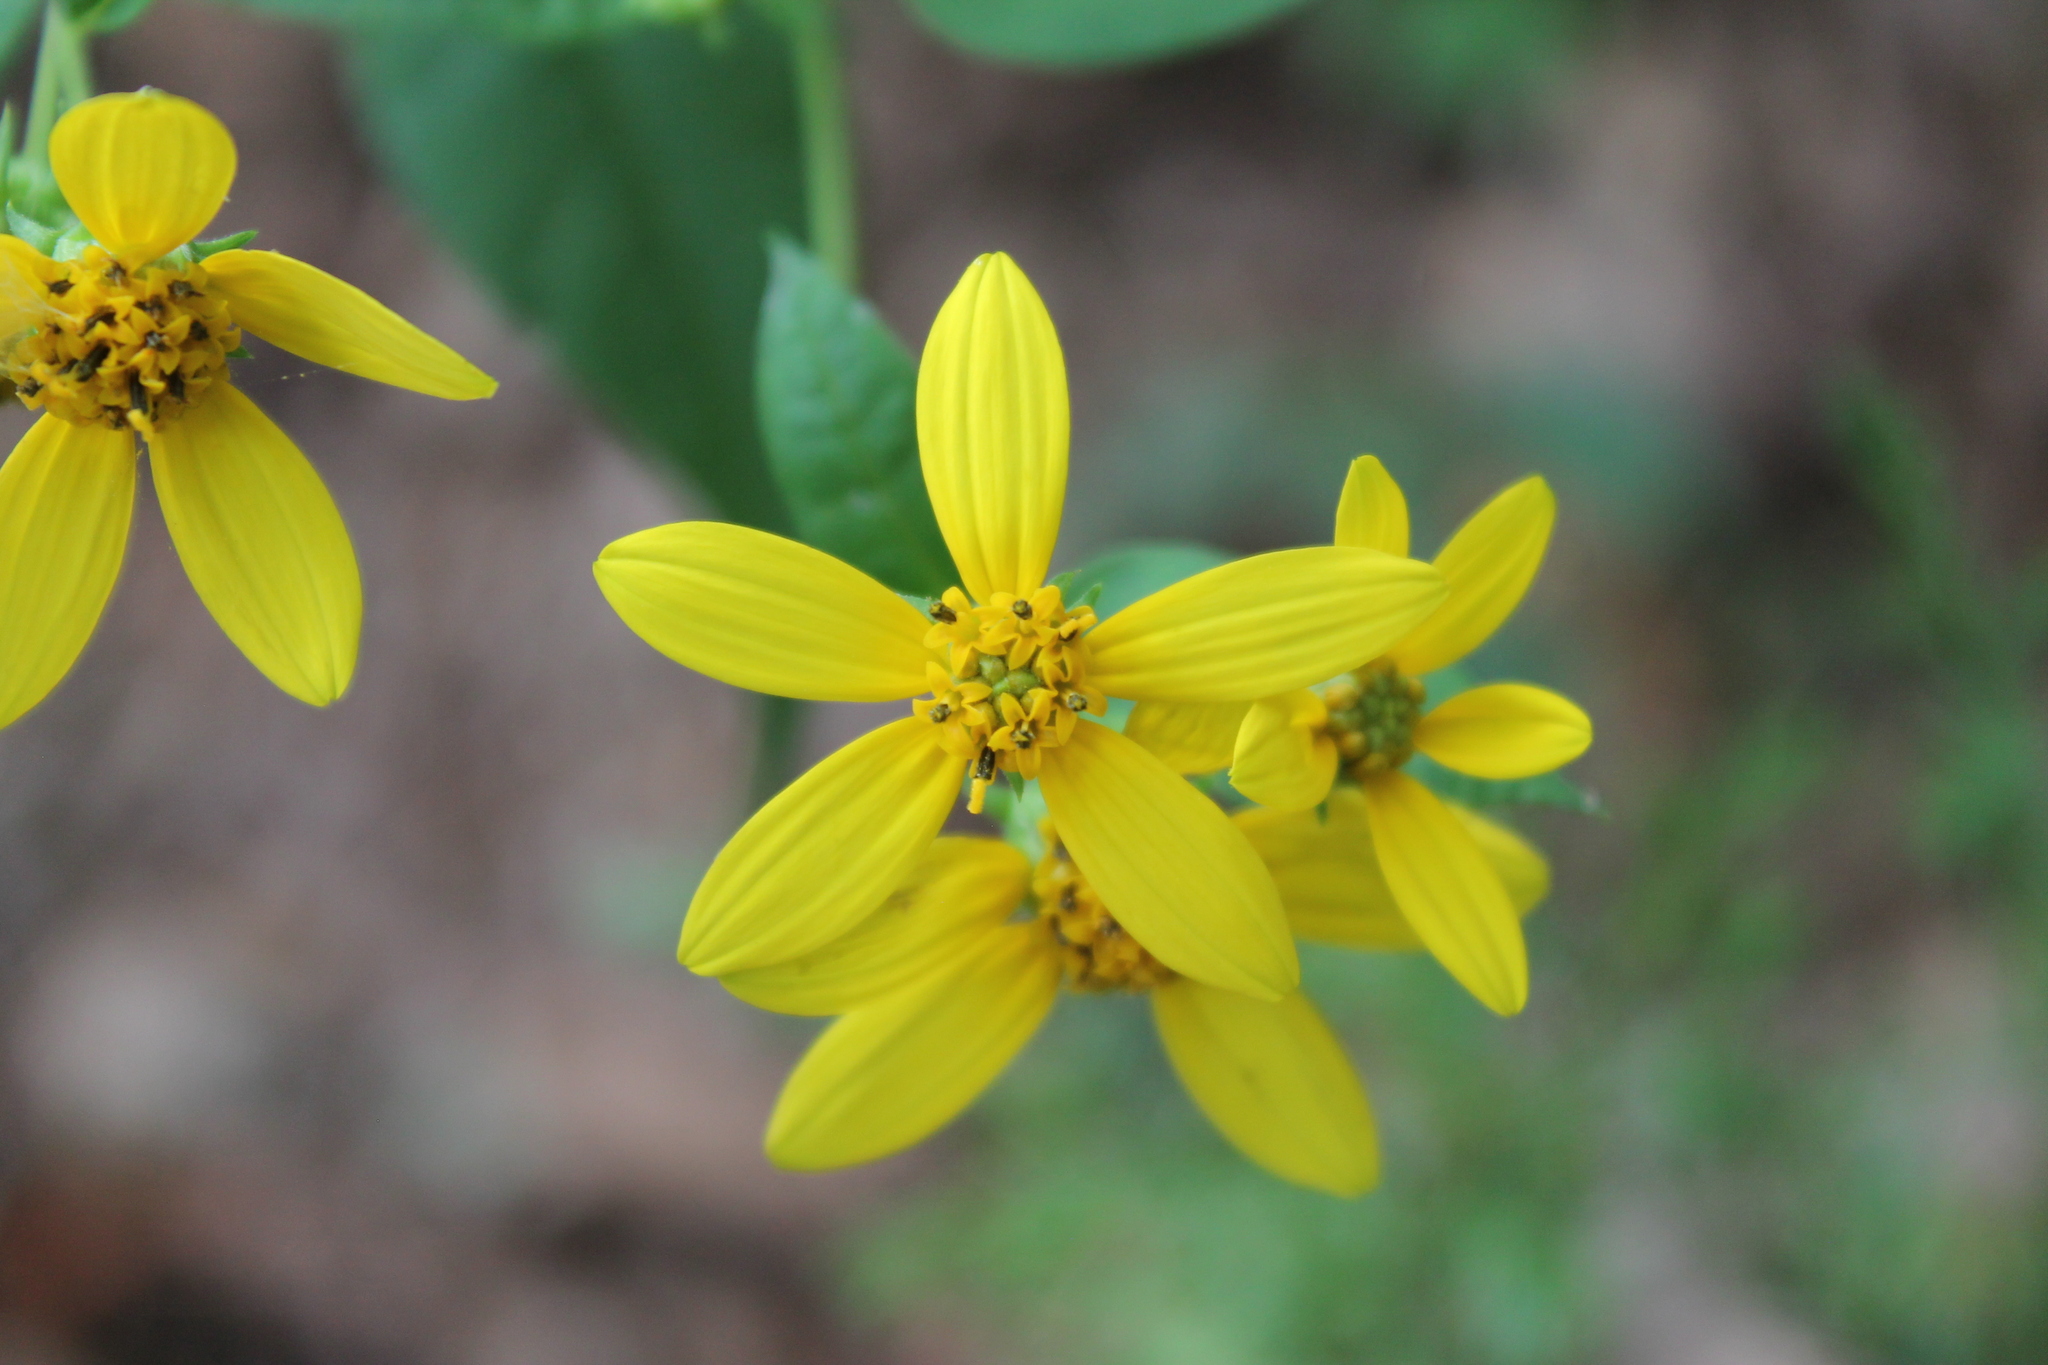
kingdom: Plantae
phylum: Tracheophyta
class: Magnoliopsida
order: Asterales
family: Asteraceae
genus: Helianthus
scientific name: Helianthus microcephalus
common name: Woodland sunflower
